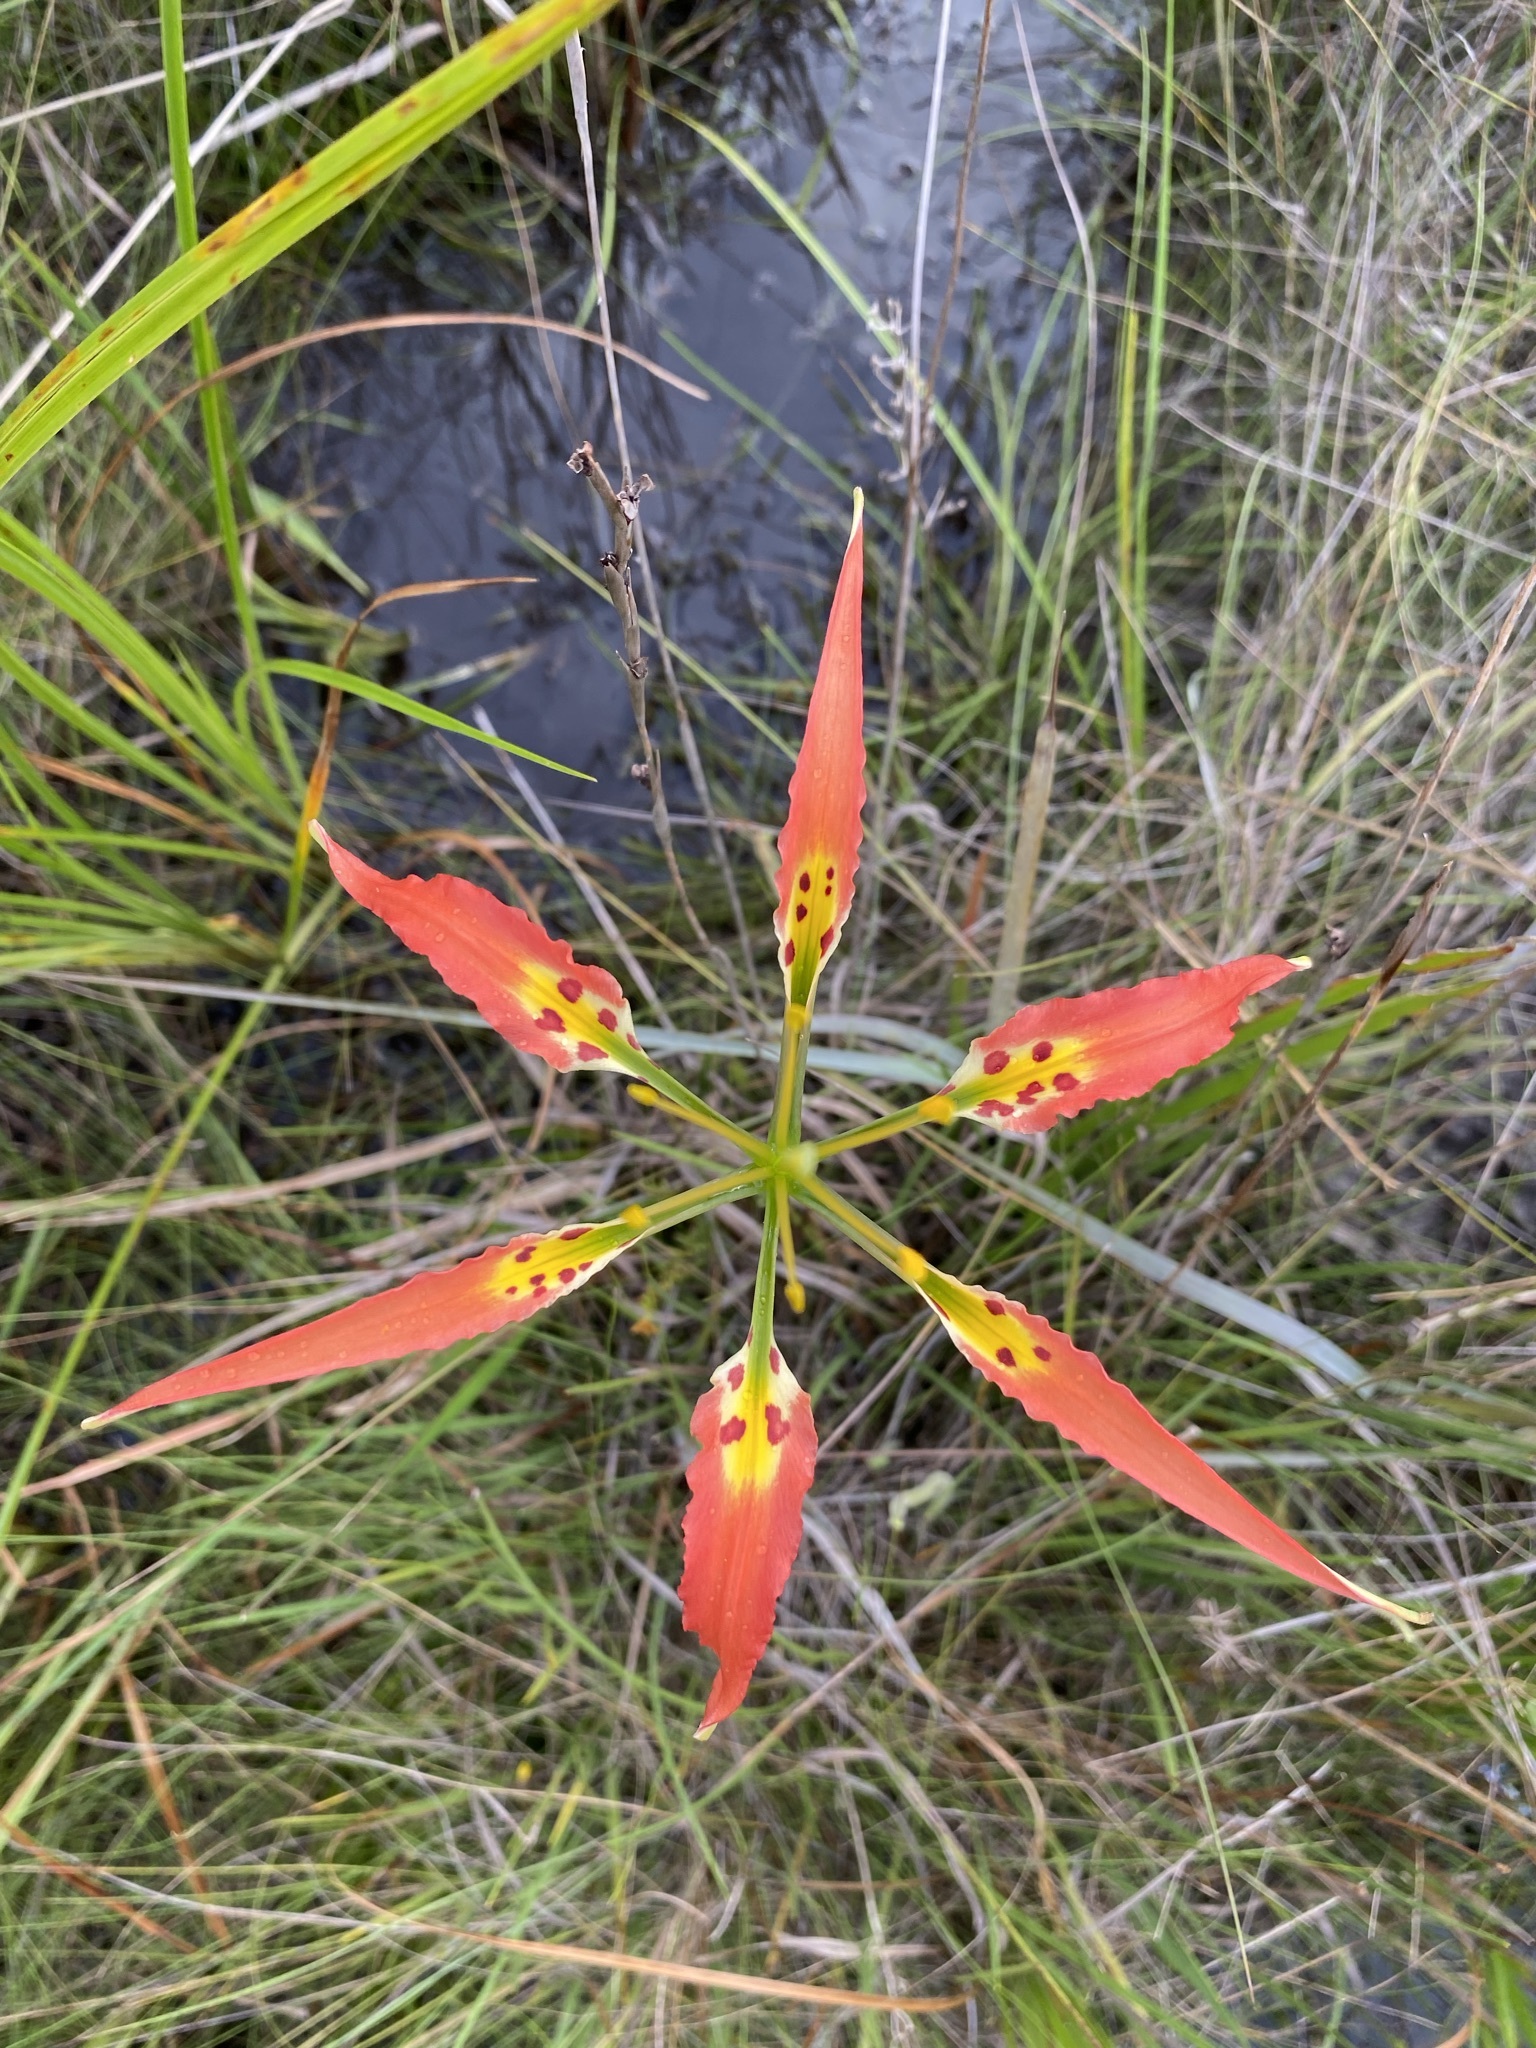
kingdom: Plantae
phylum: Tracheophyta
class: Liliopsida
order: Liliales
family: Liliaceae
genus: Lilium
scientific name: Lilium catesbaei
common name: Catesby's lily
